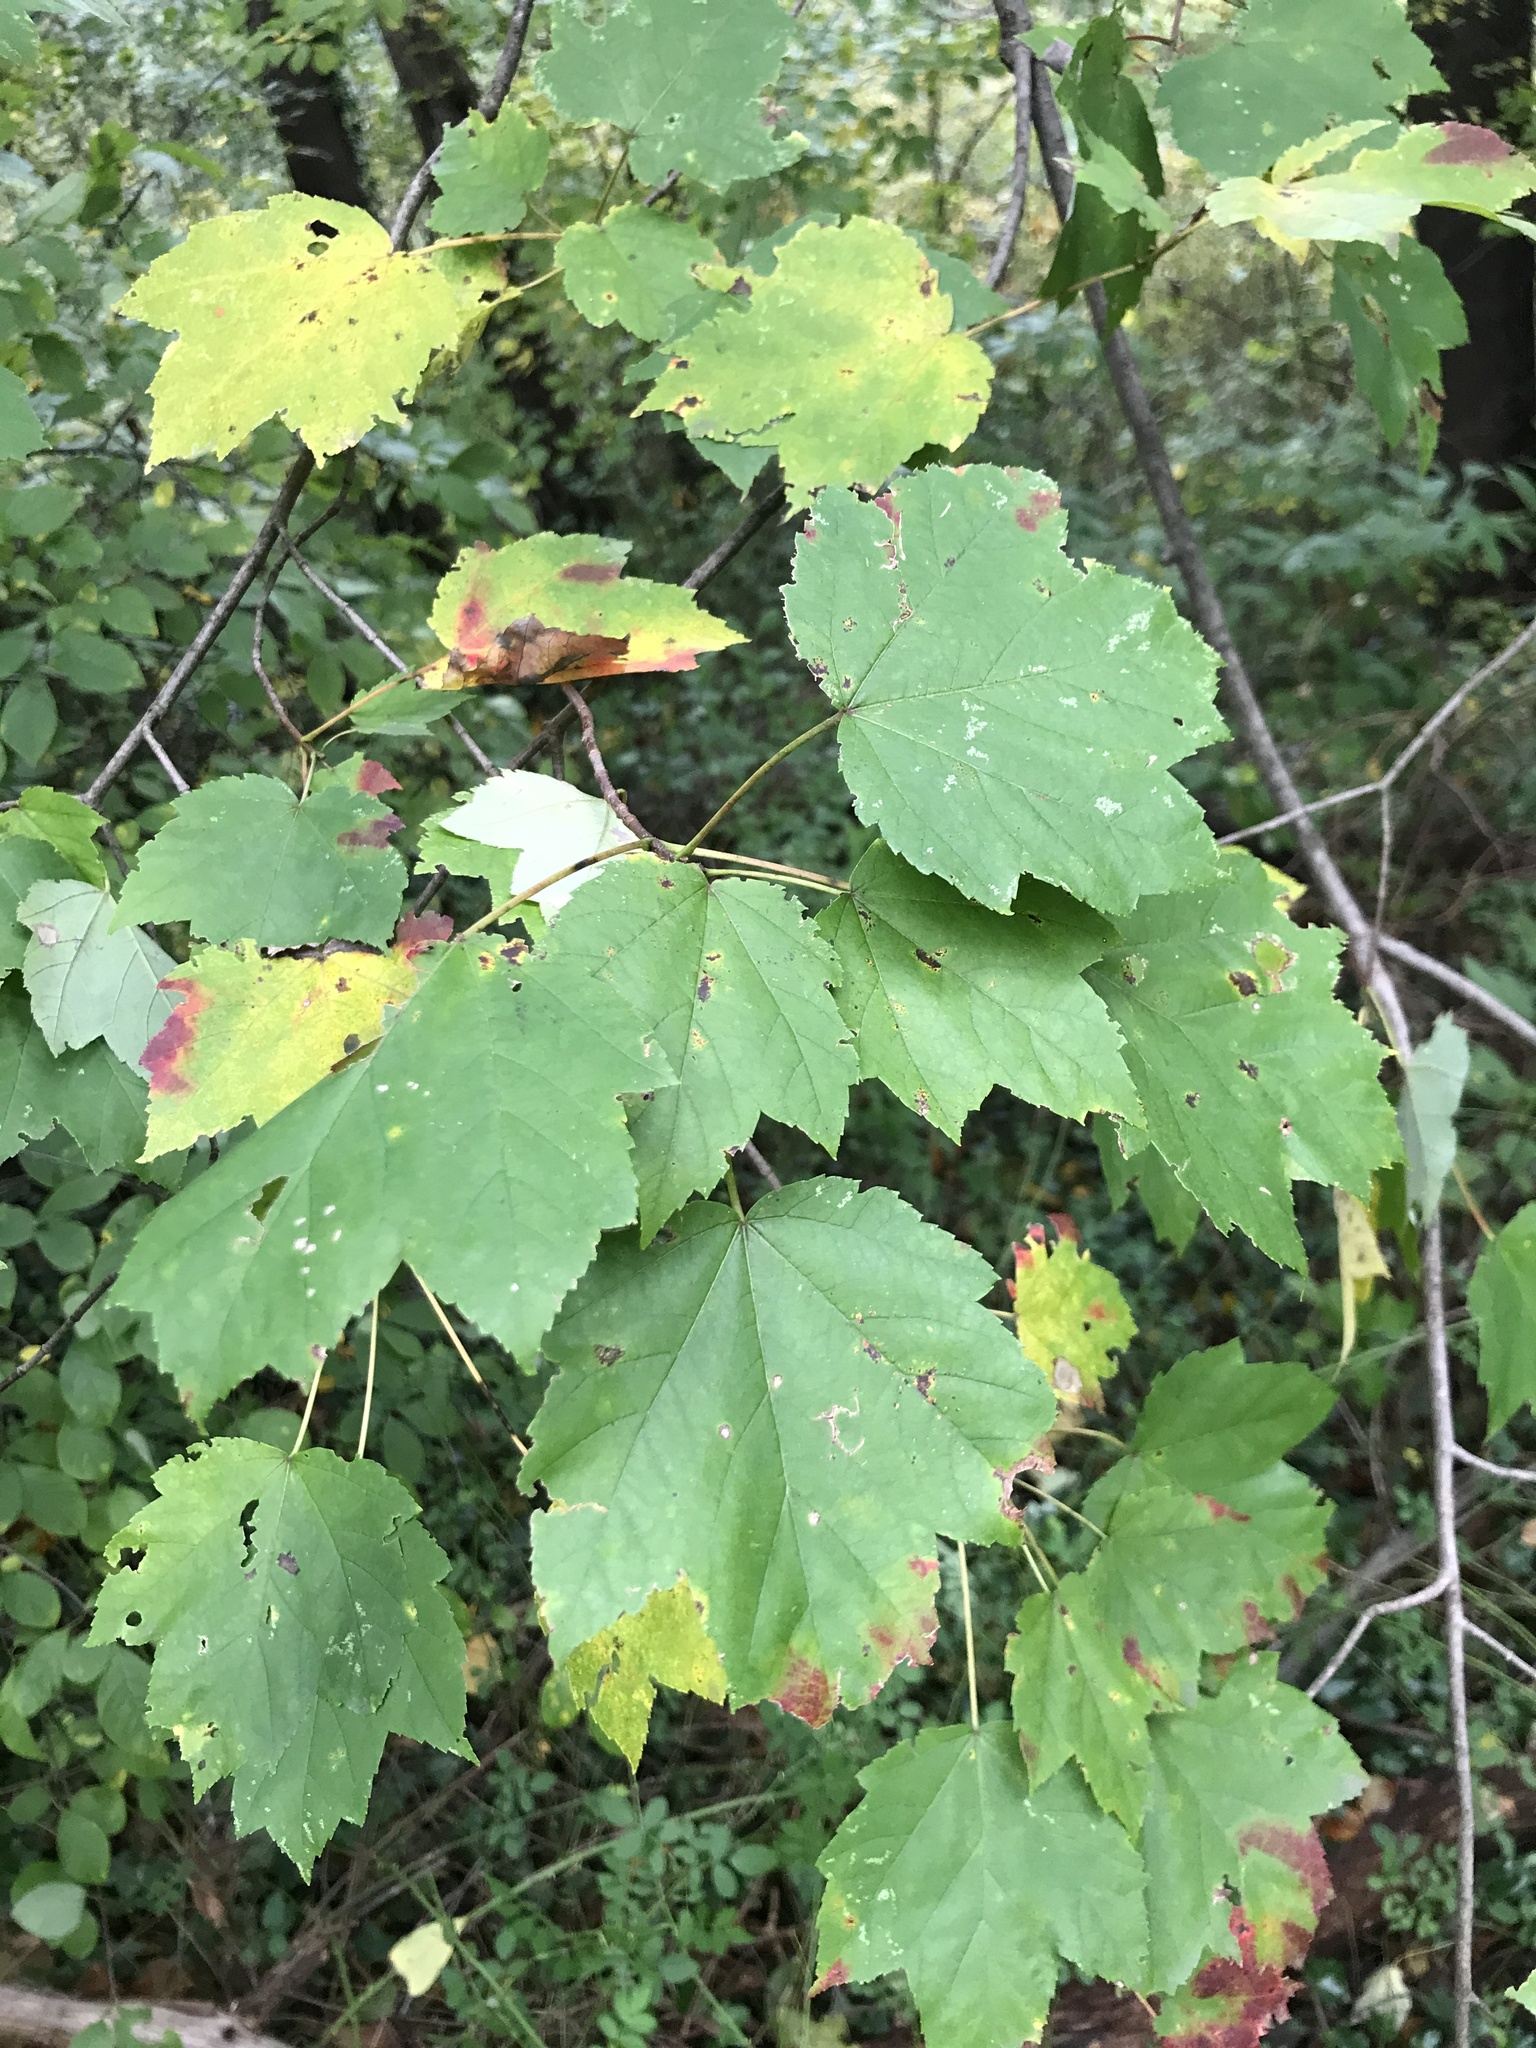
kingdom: Plantae
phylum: Tracheophyta
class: Magnoliopsida
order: Sapindales
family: Sapindaceae
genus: Acer
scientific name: Acer rubrum
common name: Red maple
